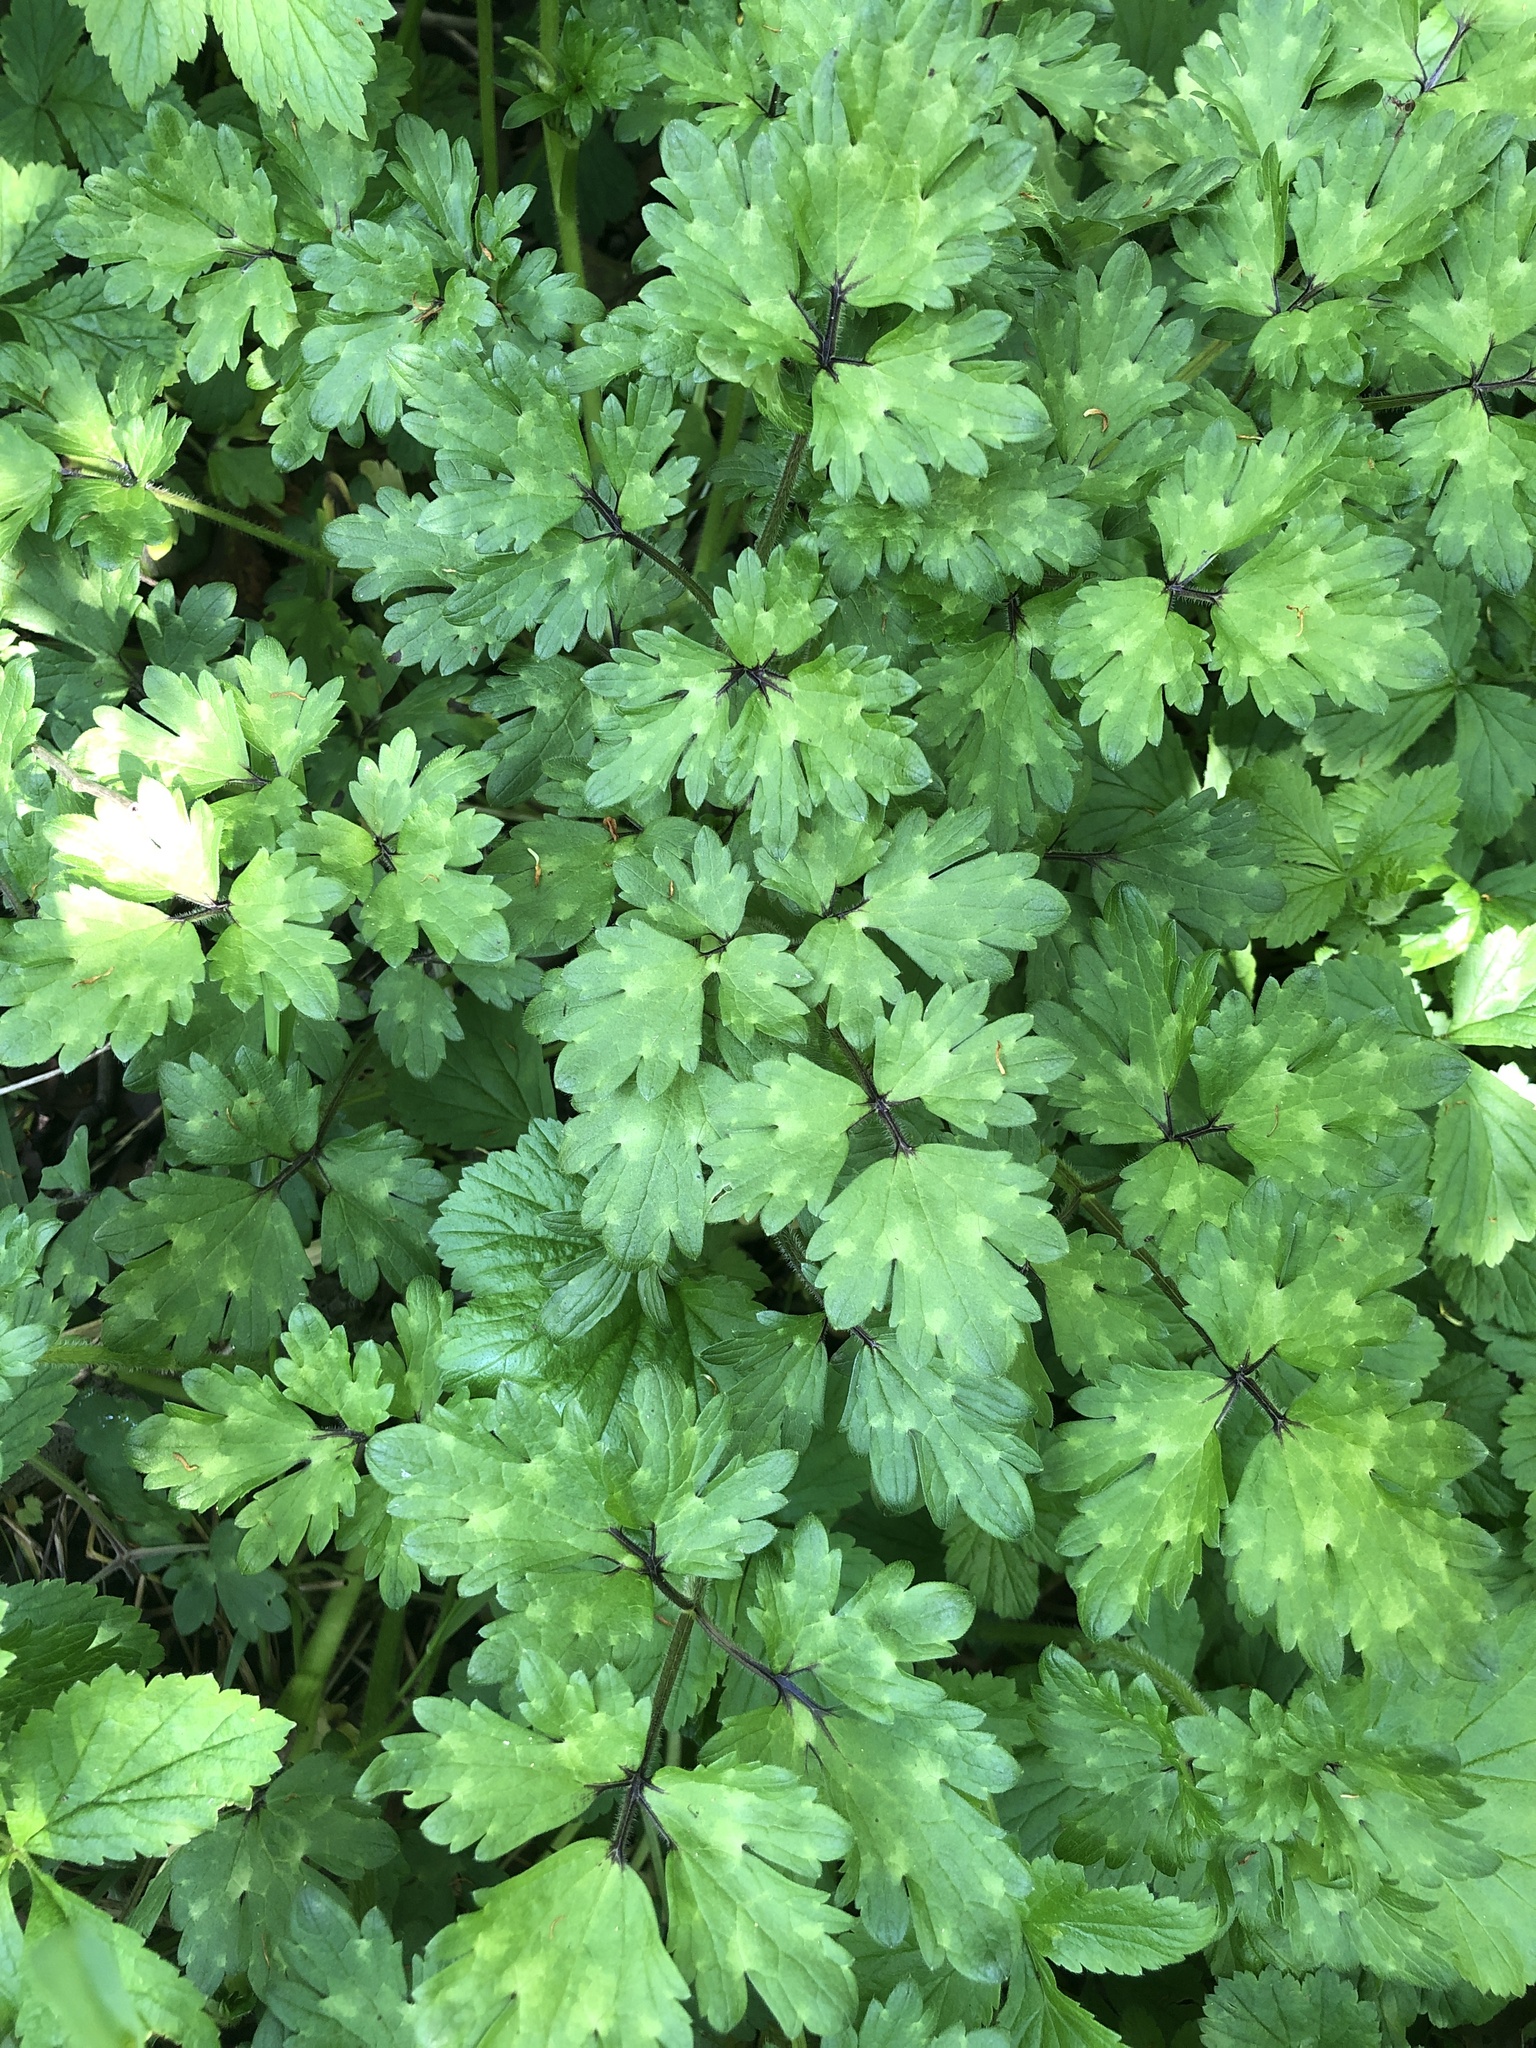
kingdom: Plantae
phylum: Tracheophyta
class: Magnoliopsida
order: Ranunculales
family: Ranunculaceae
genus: Ranunculus
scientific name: Ranunculus repens
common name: Creeping buttercup
